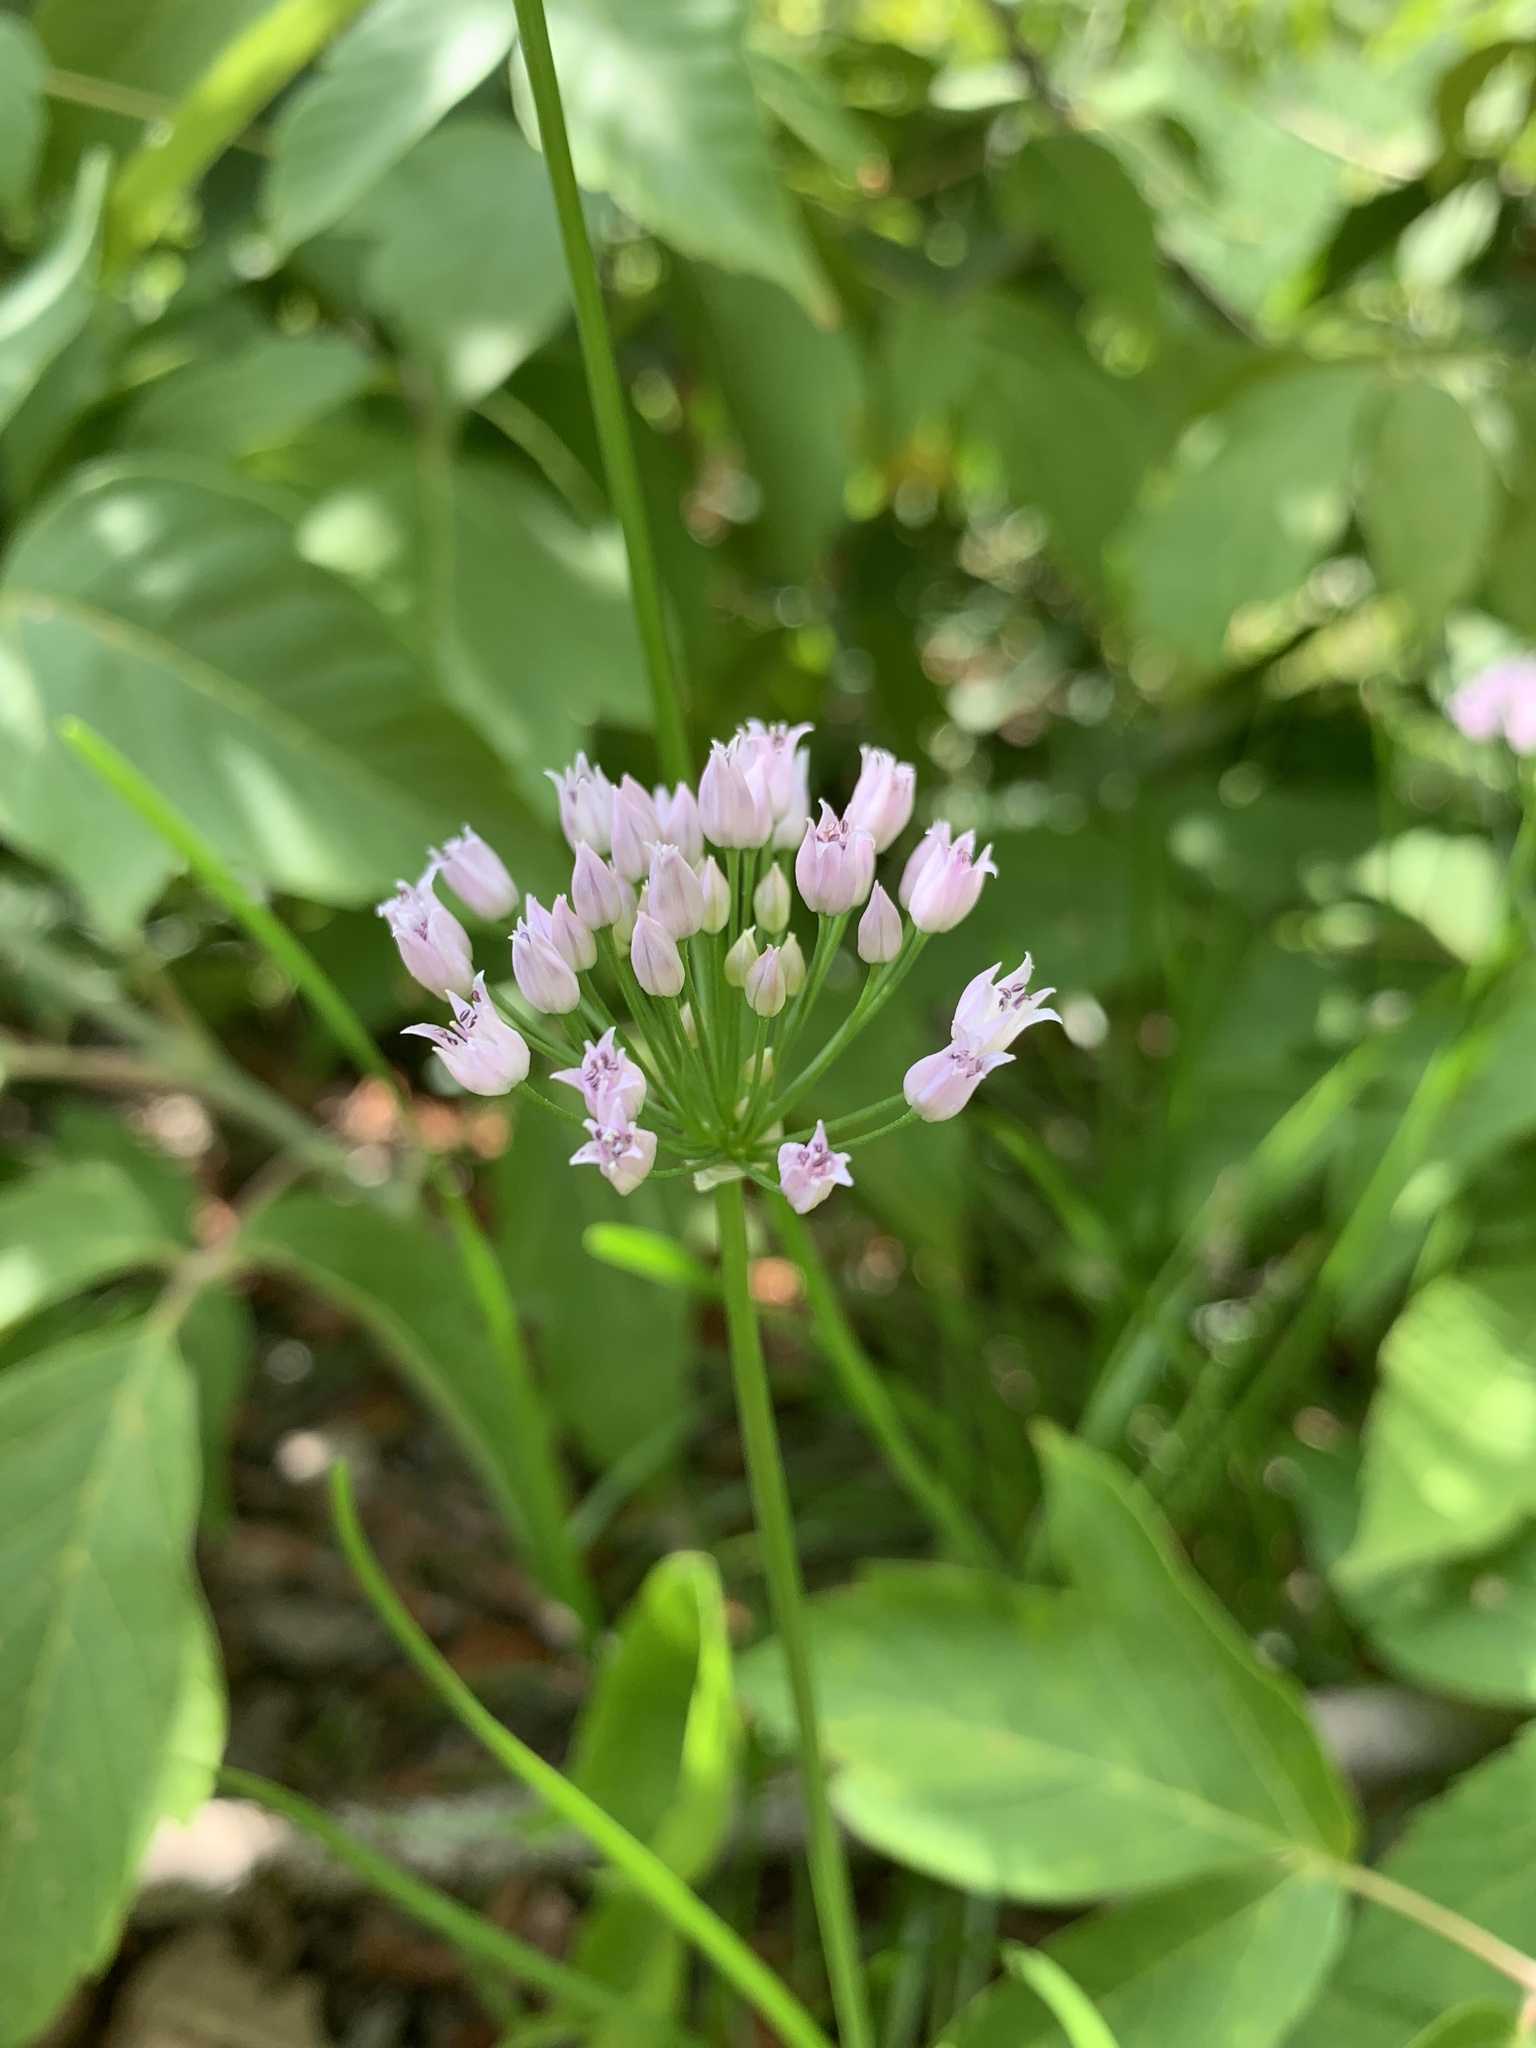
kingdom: Plantae
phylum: Tracheophyta
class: Liliopsida
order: Asparagales
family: Amaryllidaceae
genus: Allium
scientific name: Allium angulosum
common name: Mouse garlic
